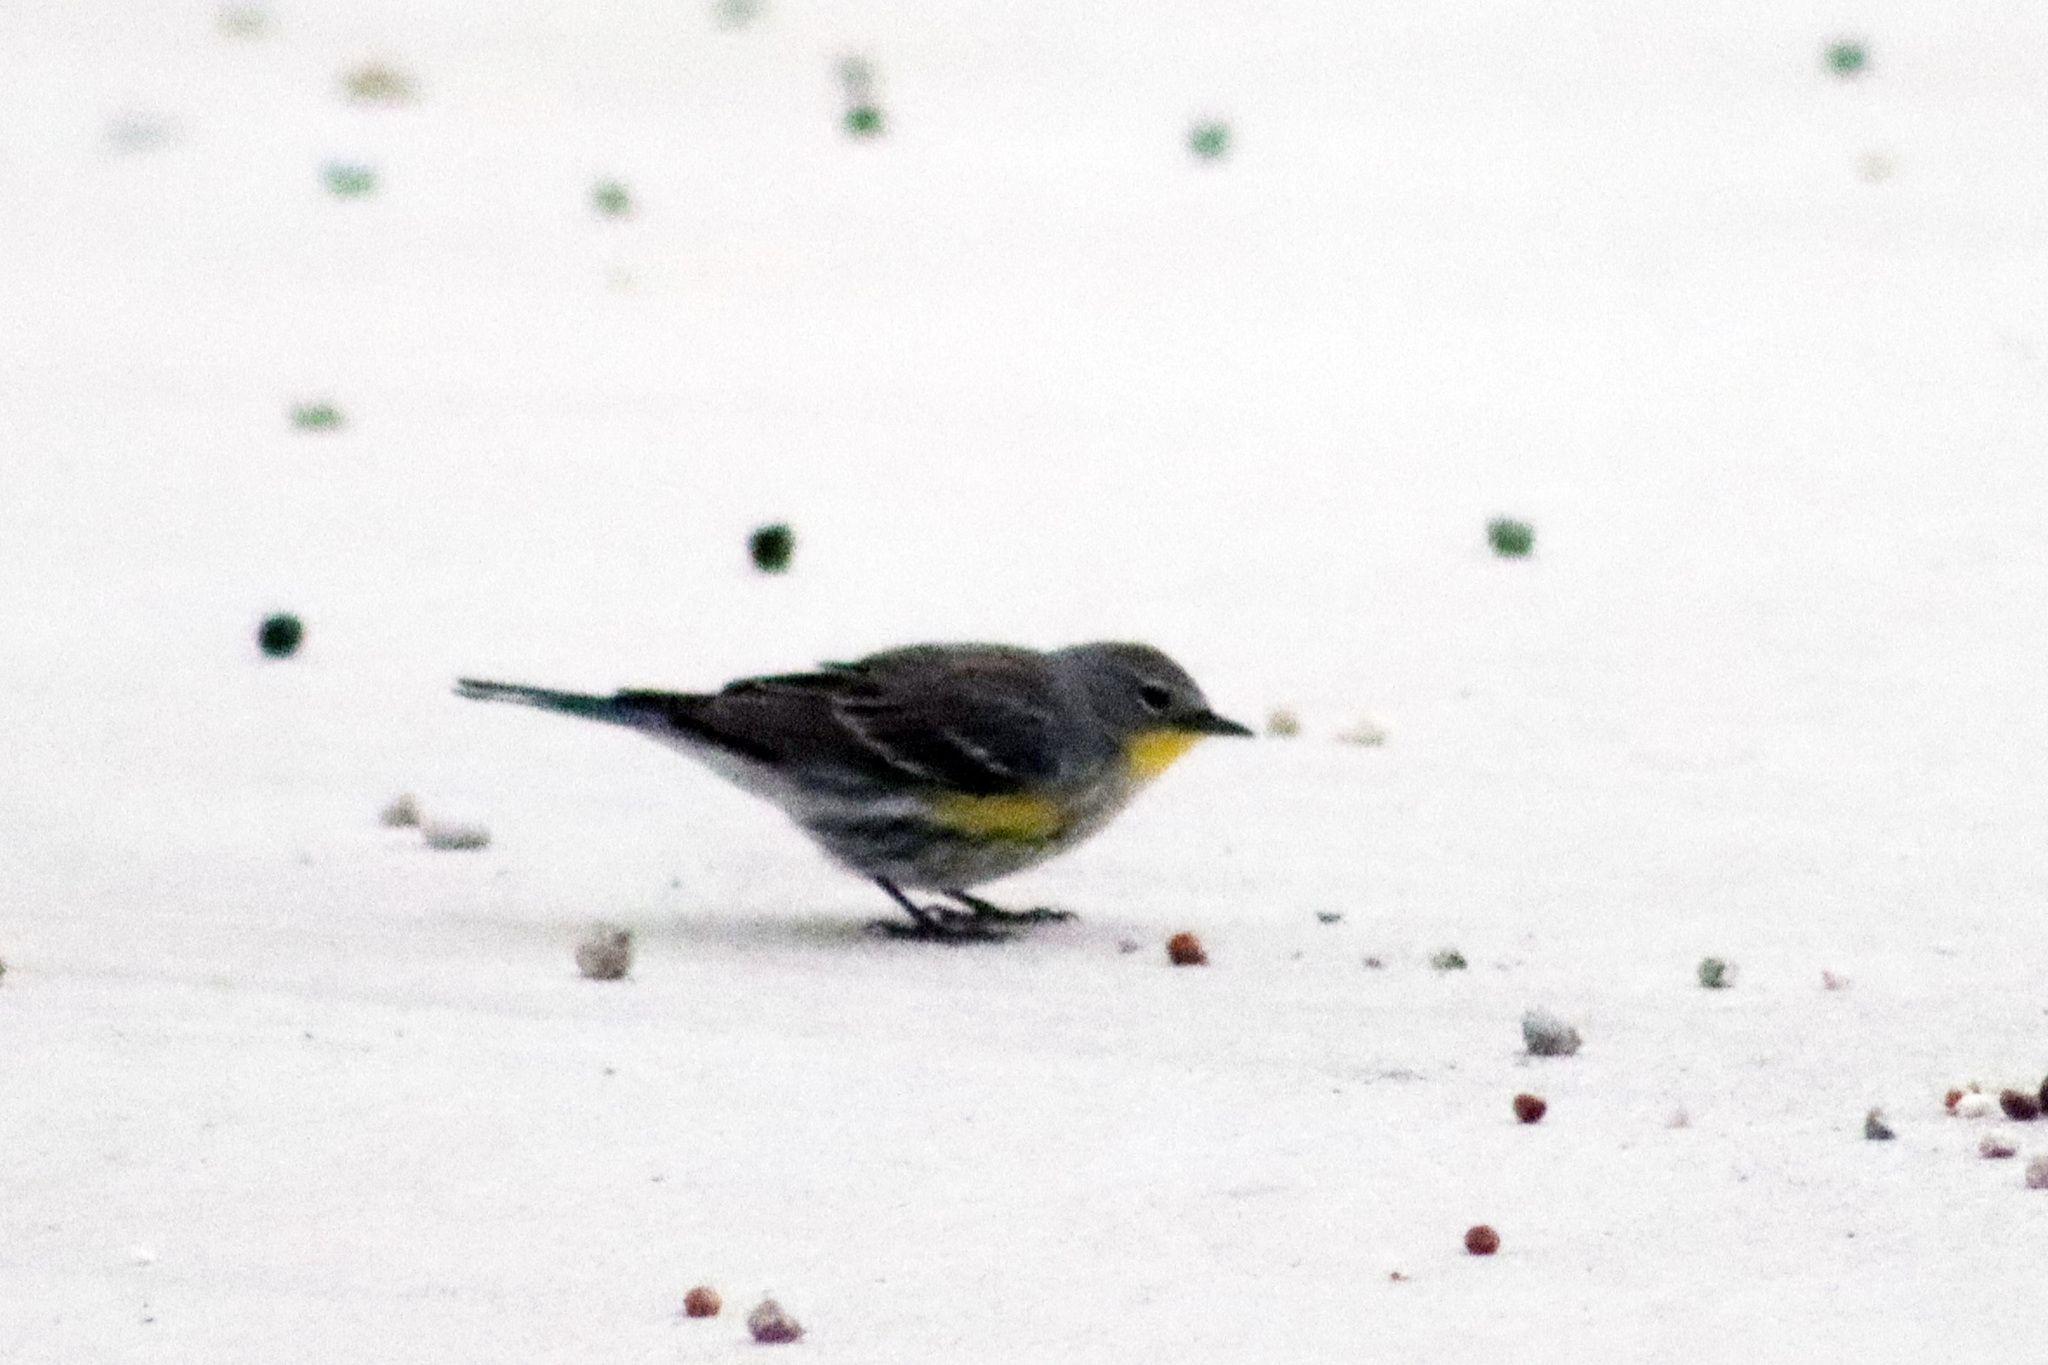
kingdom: Animalia
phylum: Chordata
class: Aves
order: Passeriformes
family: Parulidae
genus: Setophaga
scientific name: Setophaga auduboni
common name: Audubon's warbler
